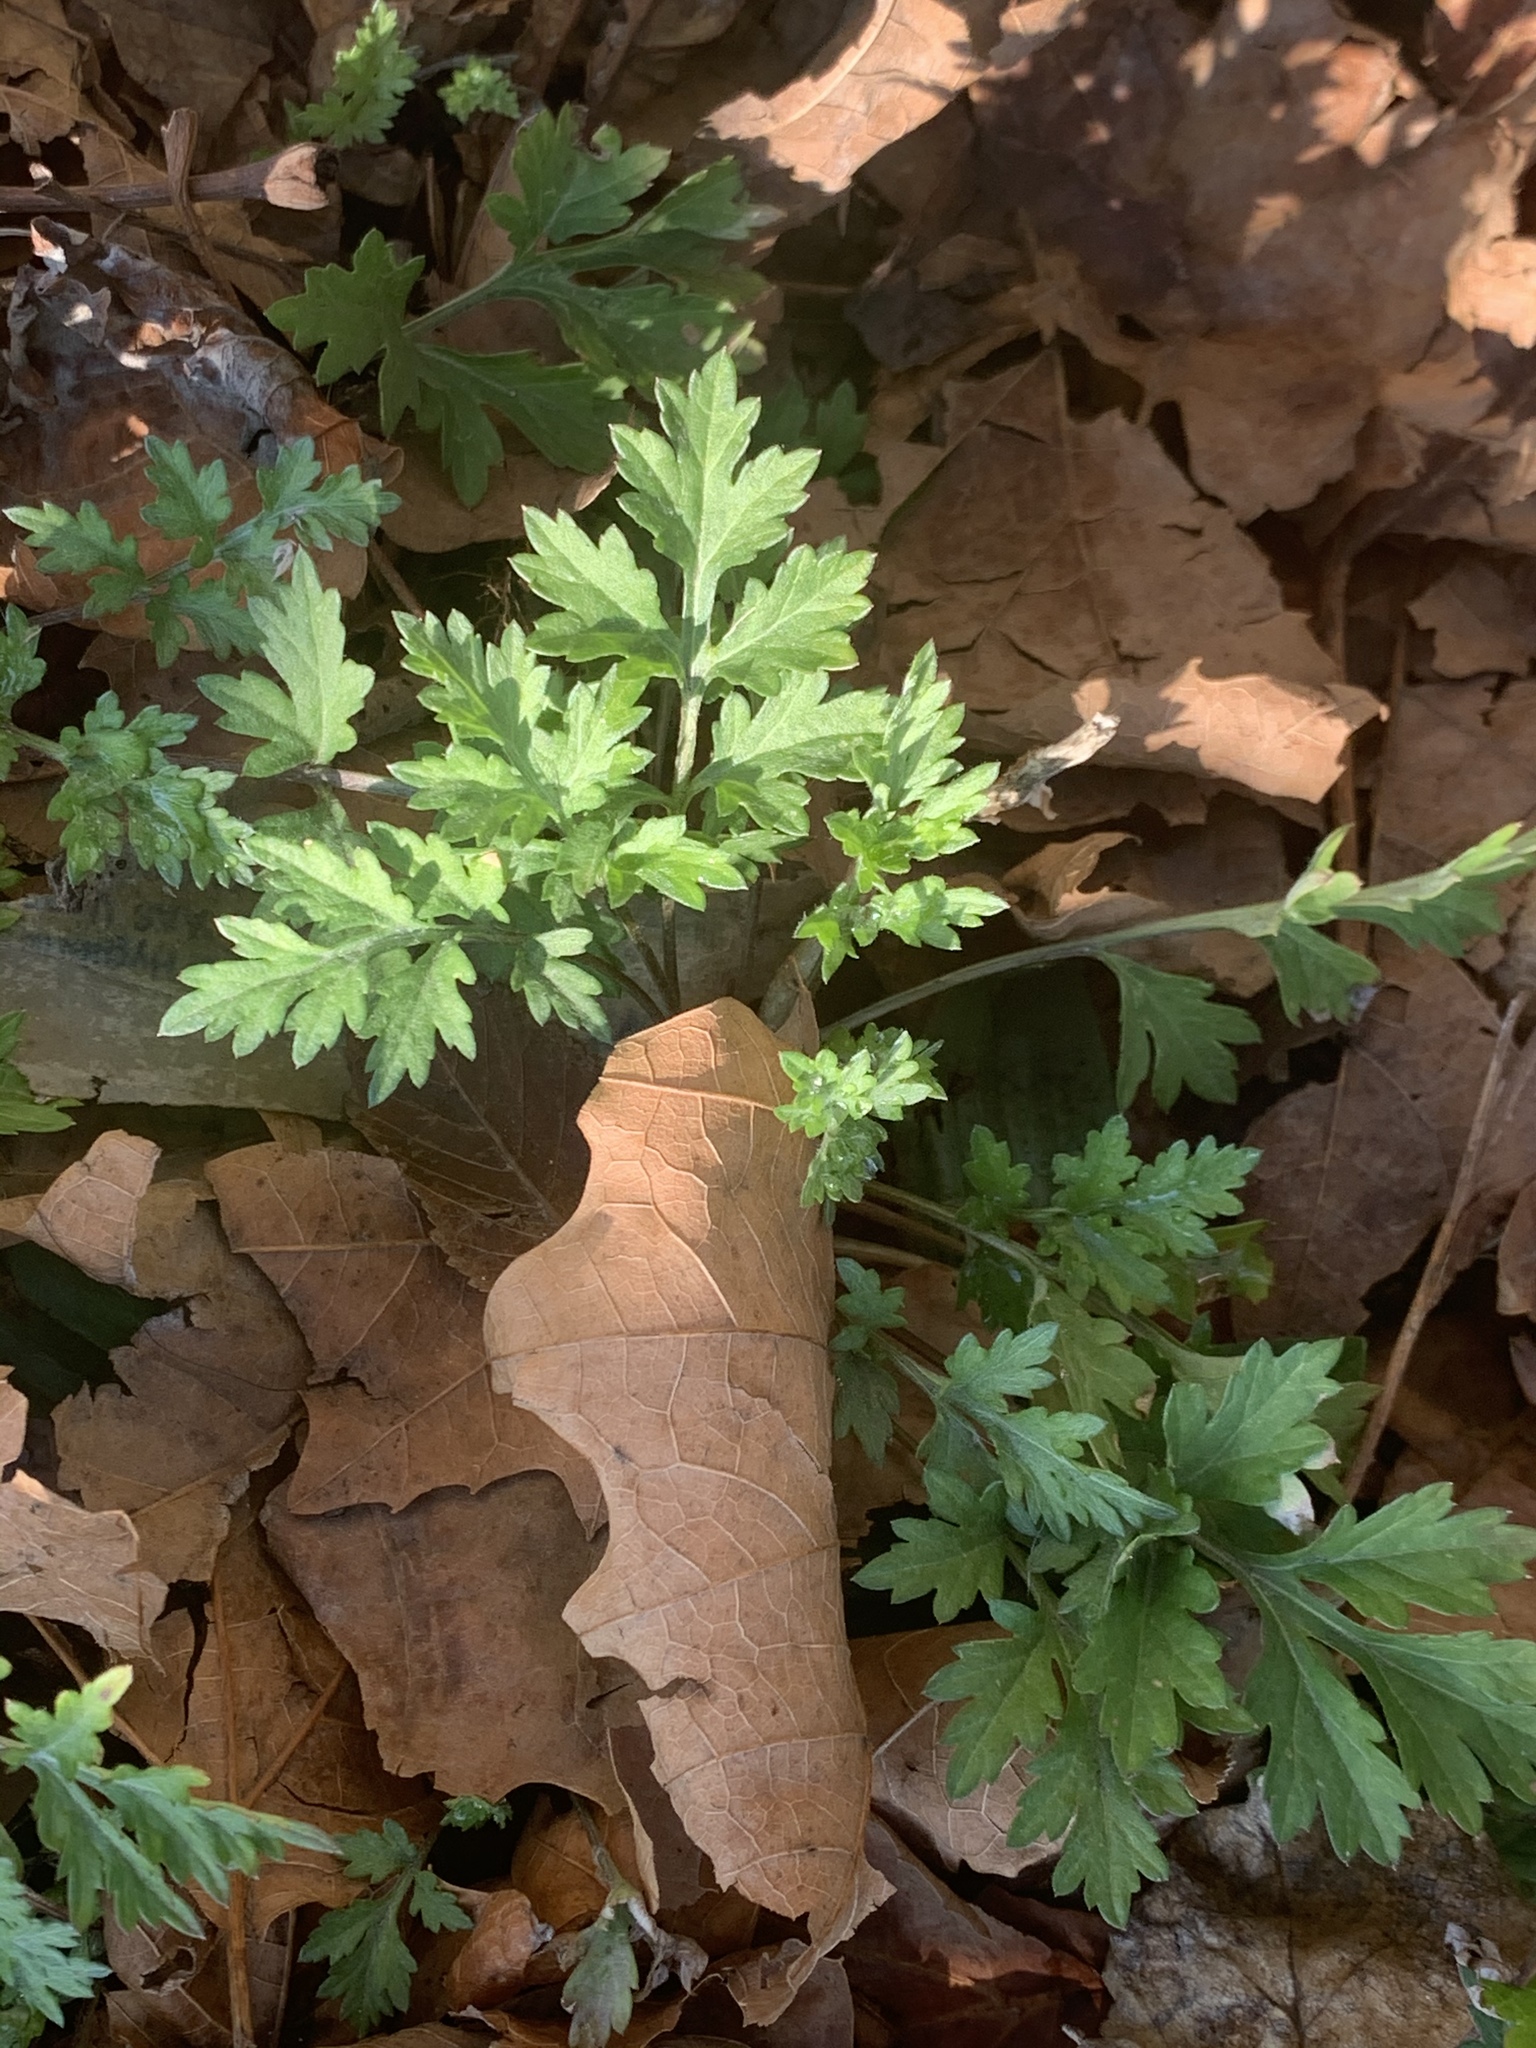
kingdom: Plantae
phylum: Tracheophyta
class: Magnoliopsida
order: Asterales
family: Asteraceae
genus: Artemisia
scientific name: Artemisia vulgaris
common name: Mugwort
